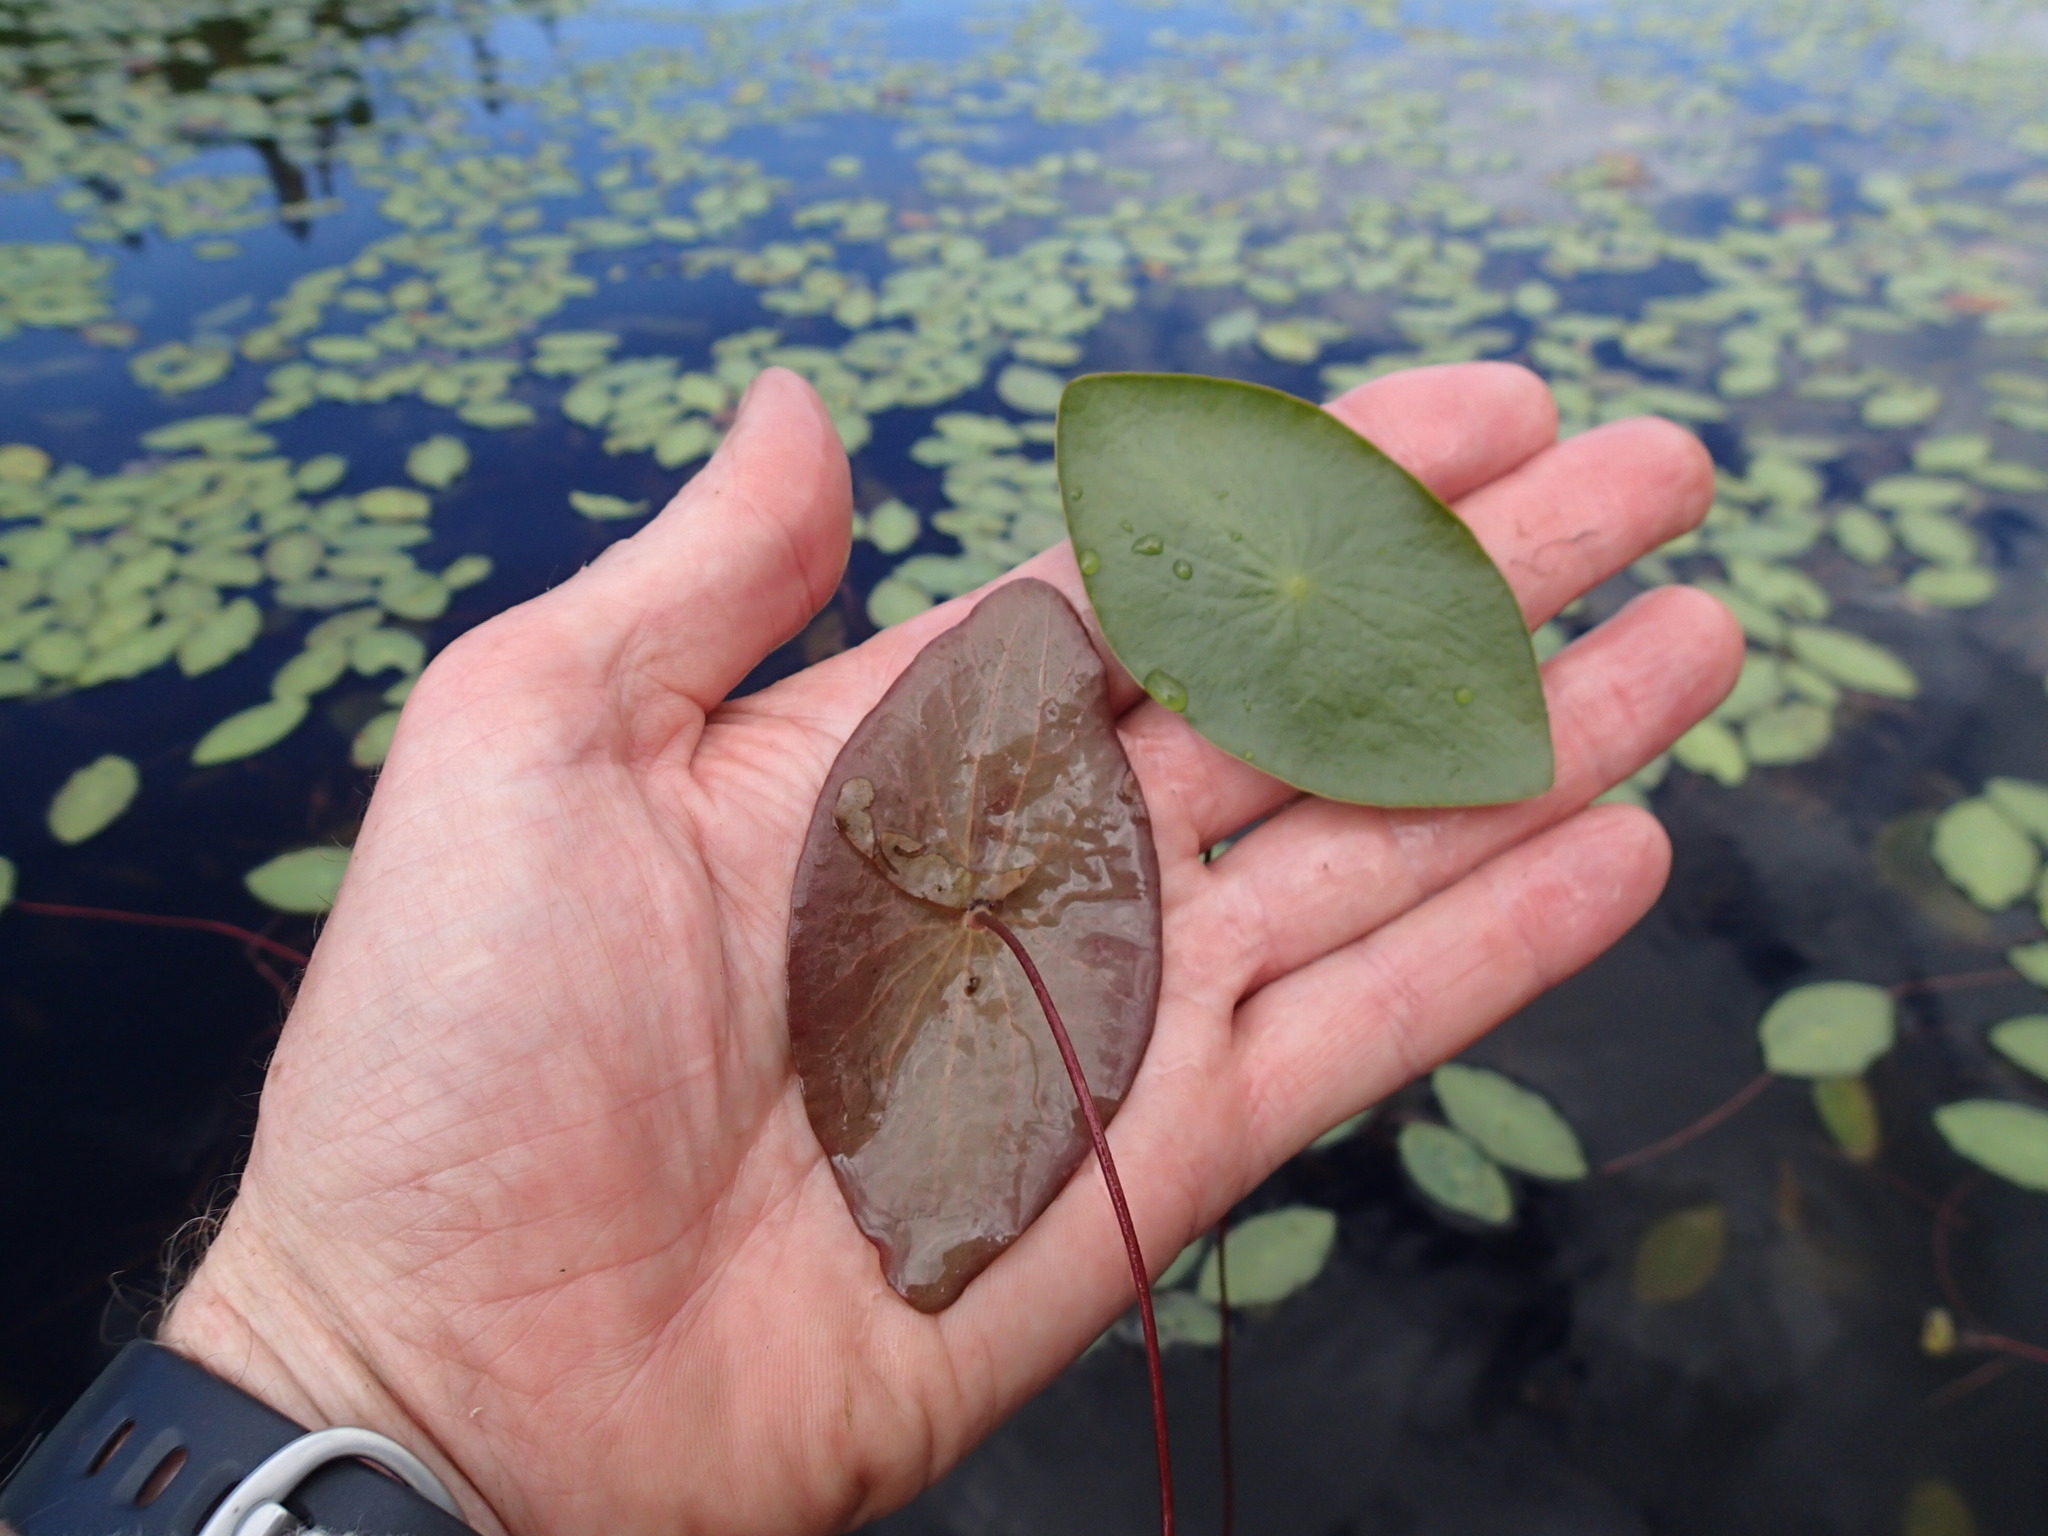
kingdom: Plantae
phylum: Tracheophyta
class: Magnoliopsida
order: Nymphaeales
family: Cabombaceae
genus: Brasenia
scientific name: Brasenia schreberi
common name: Water-shield
